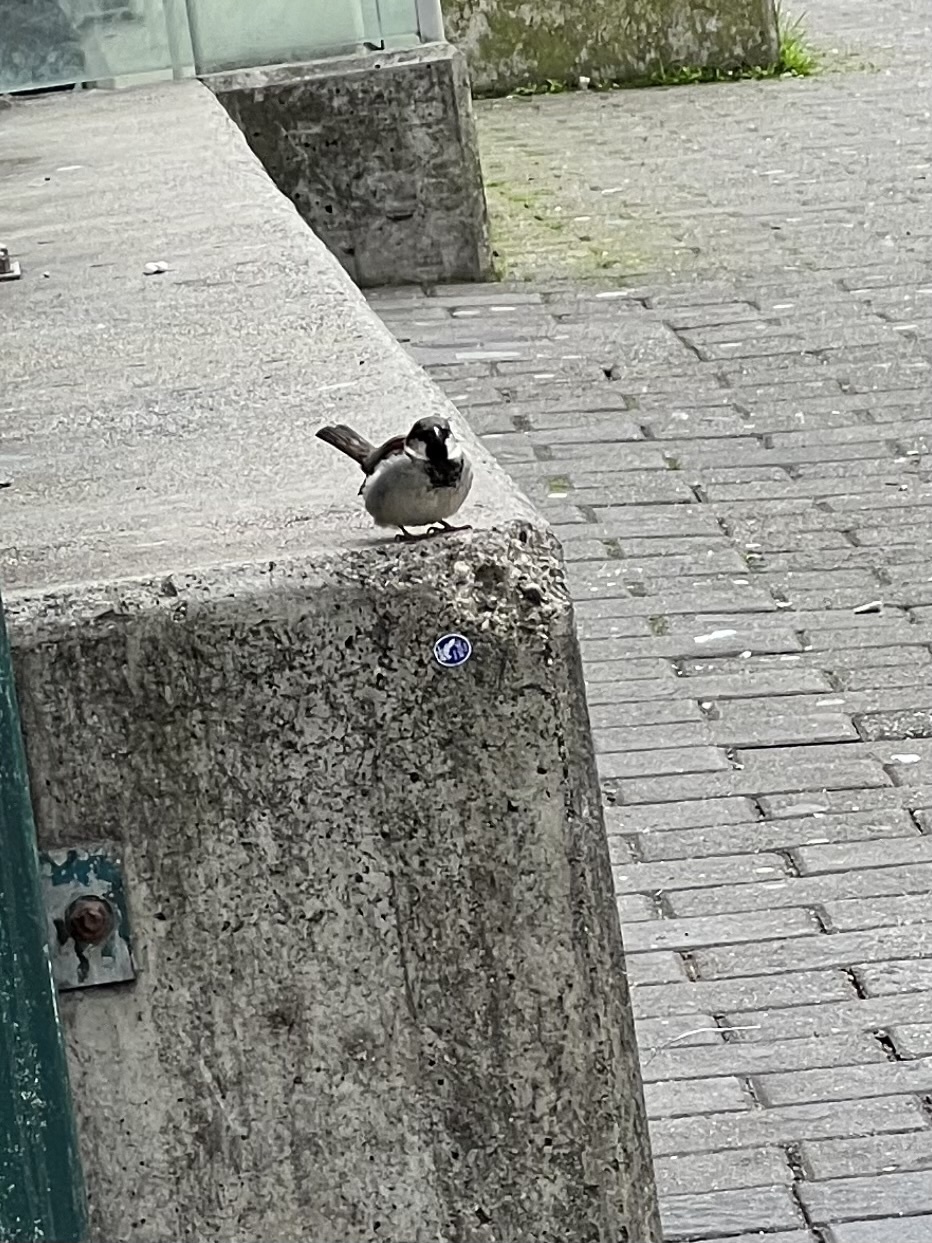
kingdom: Animalia
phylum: Chordata
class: Aves
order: Passeriformes
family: Passeridae
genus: Passer
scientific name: Passer domesticus
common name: House sparrow
